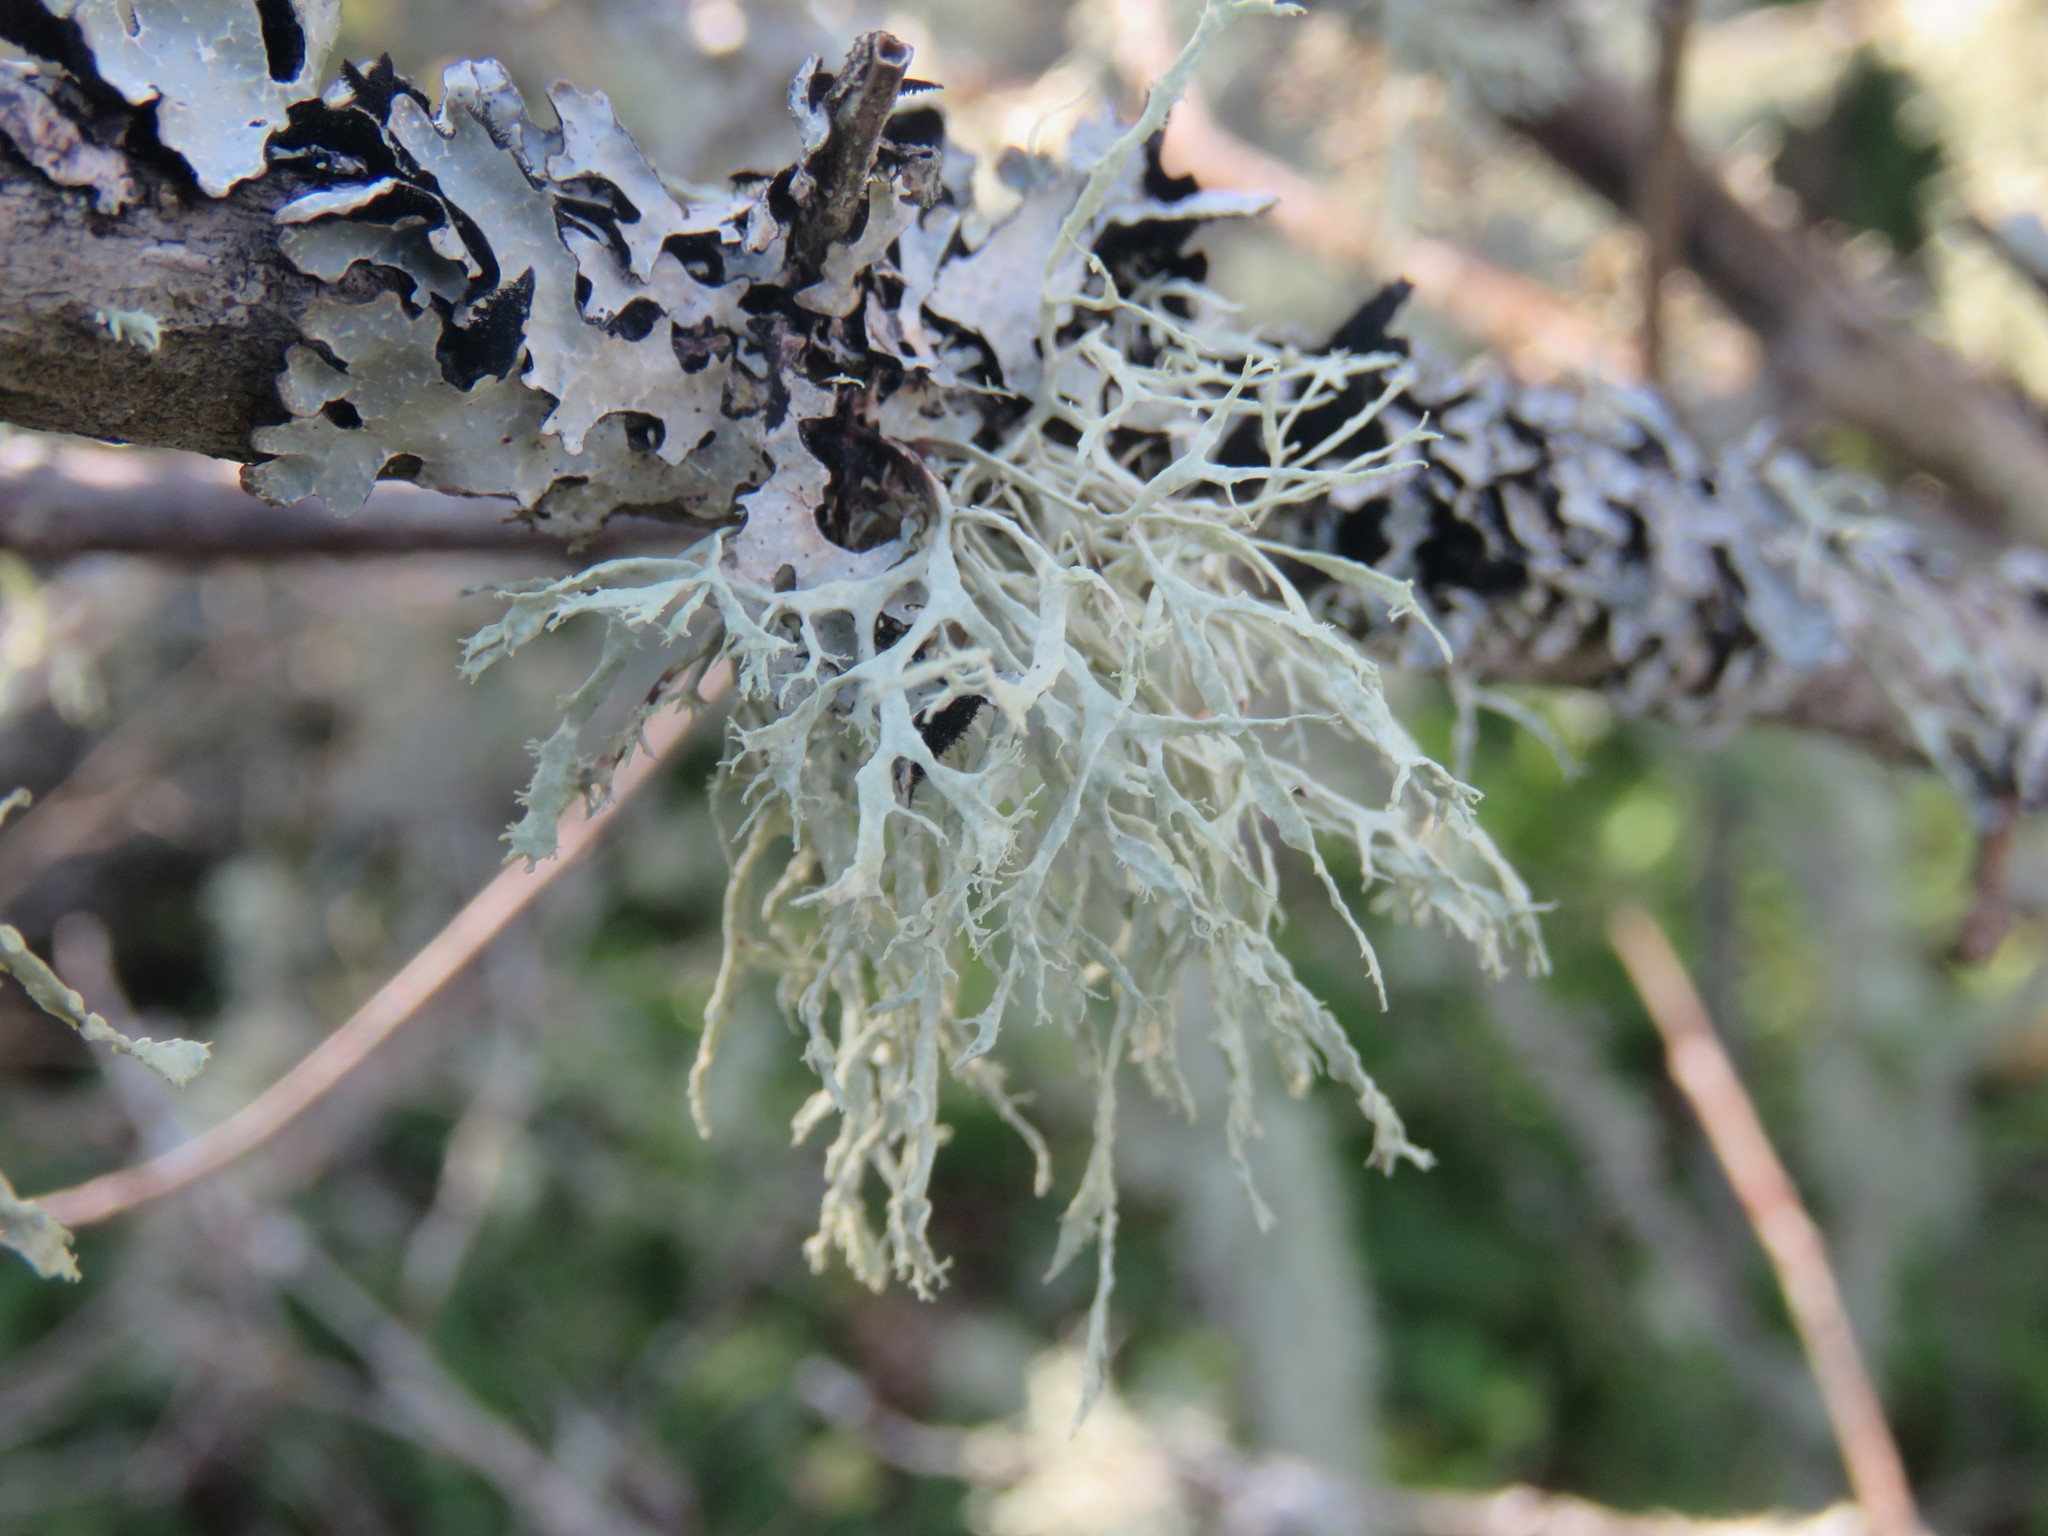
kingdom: Fungi
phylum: Ascomycota
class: Lecanoromycetes
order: Lecanorales
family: Parmeliaceae
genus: Evernia
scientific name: Evernia prunastri
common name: Oak moss
